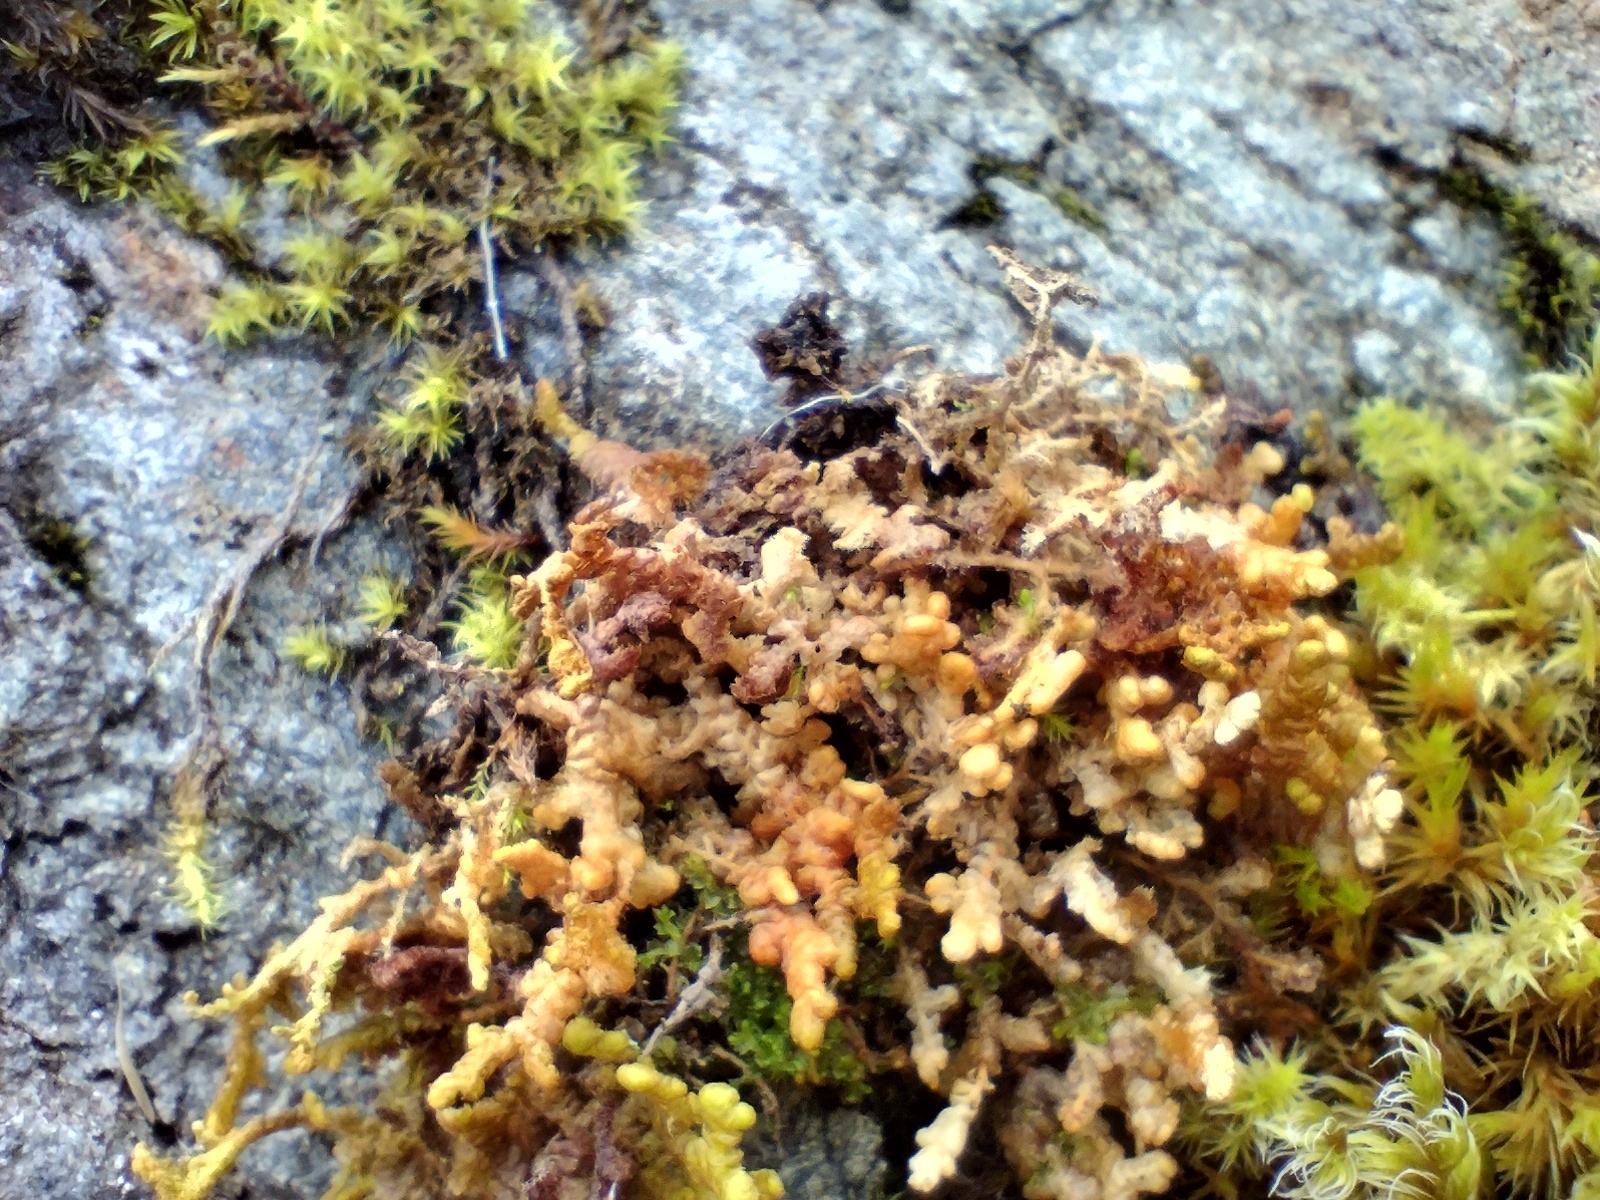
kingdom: Plantae
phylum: Marchantiophyta
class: Jungermanniopsida
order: Ptilidiales
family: Ptilidiaceae
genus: Ptilidium
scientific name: Ptilidium ciliare
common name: Ciliate fringewort
